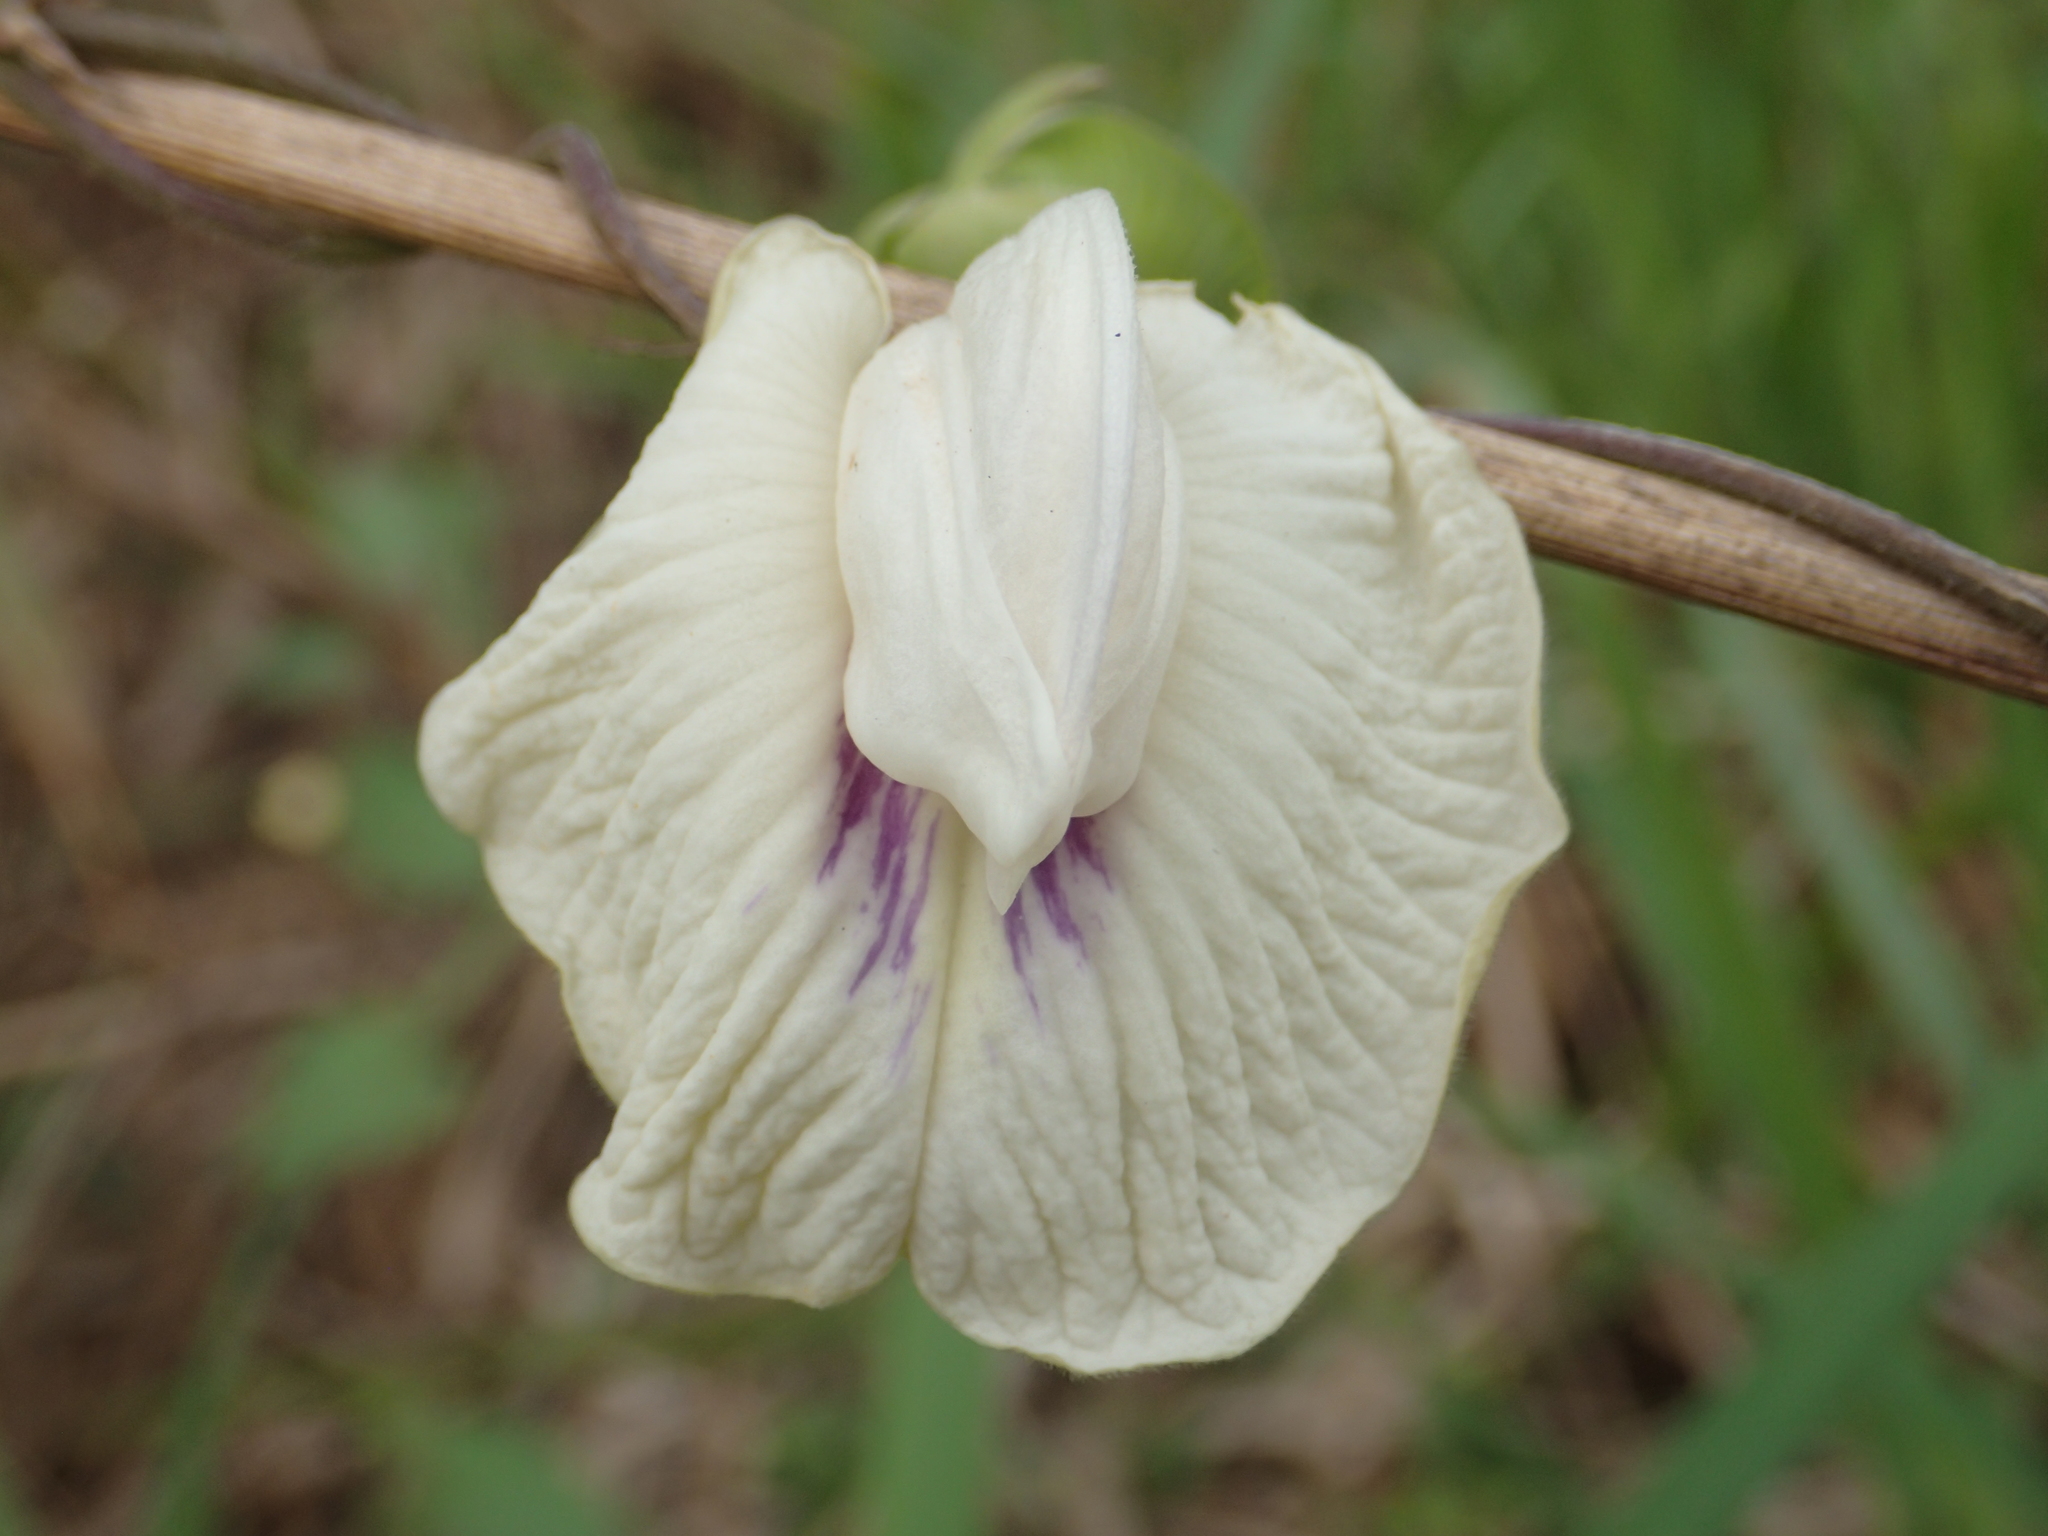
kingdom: Plantae
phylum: Tracheophyta
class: Magnoliopsida
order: Fabales
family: Fabaceae
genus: Centrosema
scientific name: Centrosema pubescens
